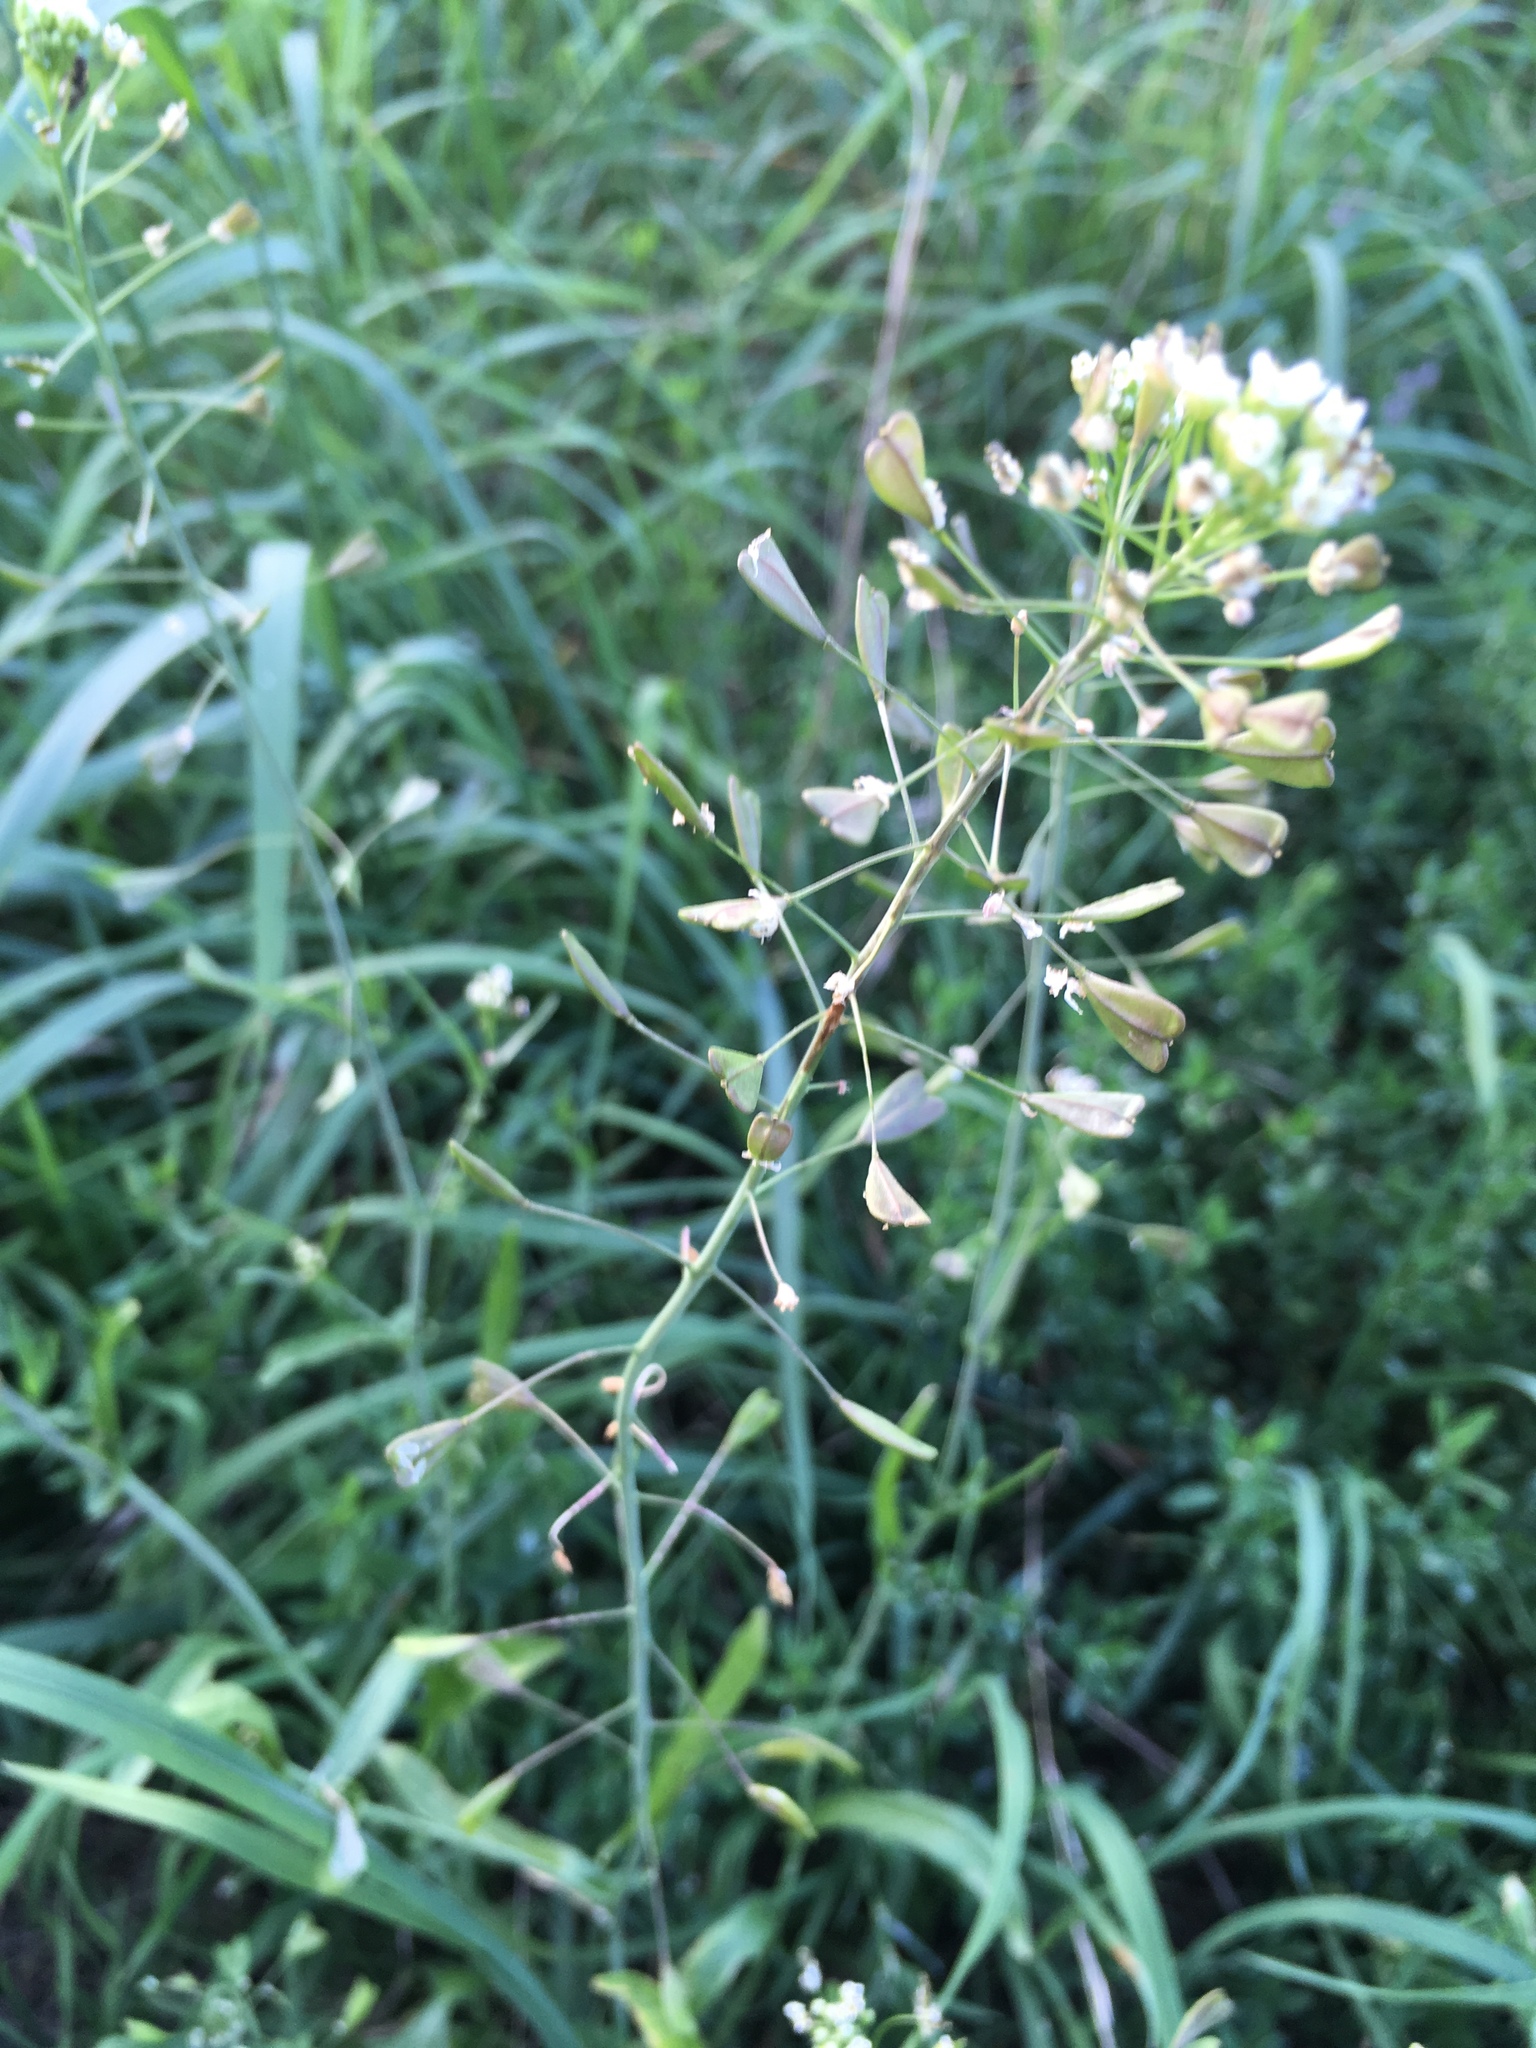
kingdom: Plantae
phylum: Tracheophyta
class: Magnoliopsida
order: Brassicales
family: Brassicaceae
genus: Capsella
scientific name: Capsella bursa-pastoris
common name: Shepherd's purse
